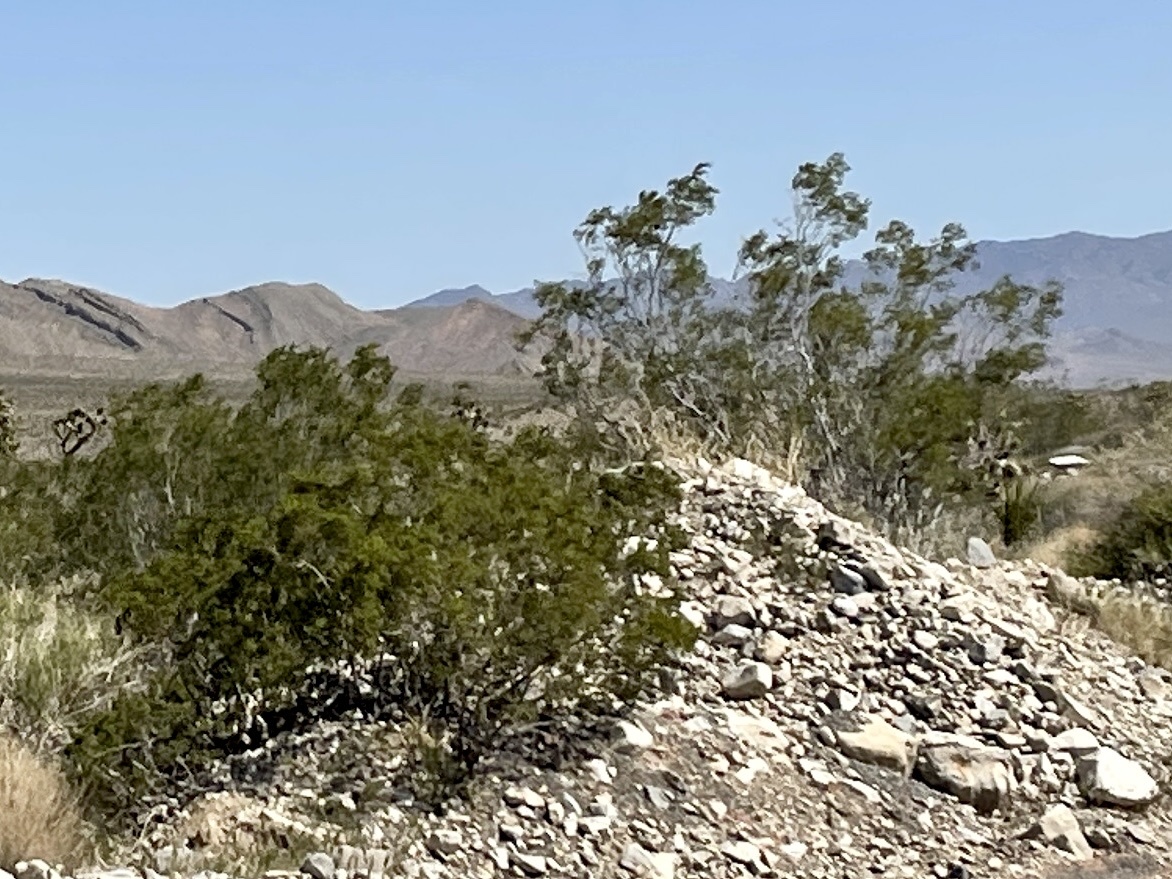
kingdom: Plantae
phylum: Tracheophyta
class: Magnoliopsida
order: Zygophyllales
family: Zygophyllaceae
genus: Larrea
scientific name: Larrea tridentata
